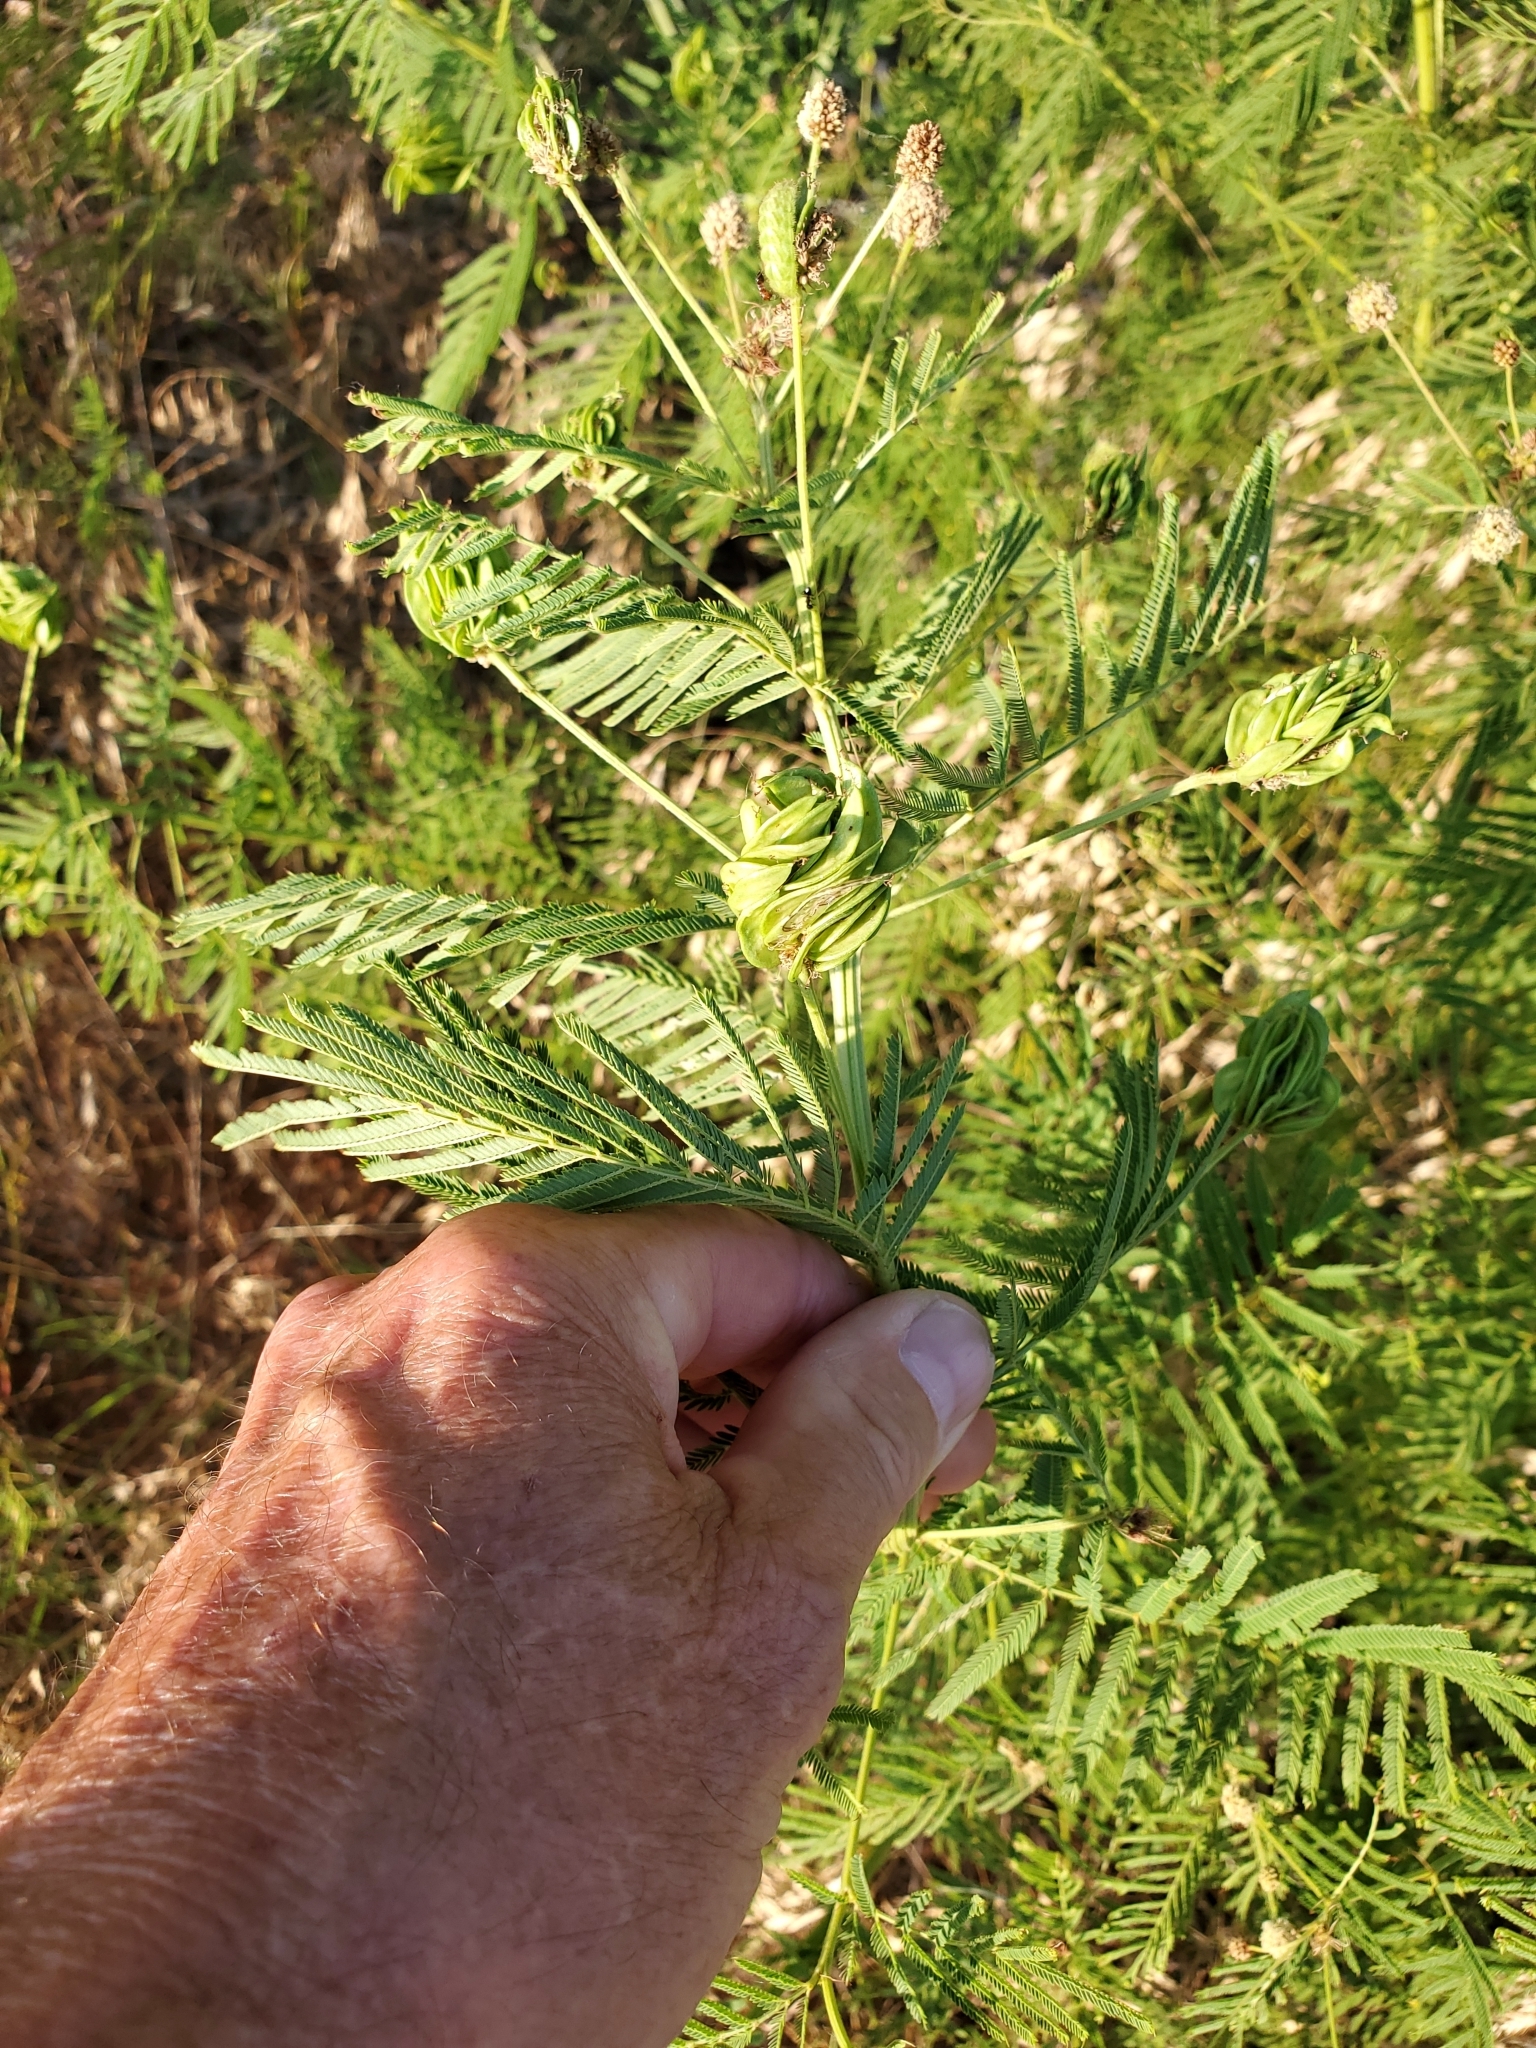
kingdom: Plantae
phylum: Tracheophyta
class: Magnoliopsida
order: Fabales
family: Fabaceae
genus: Desmanthus
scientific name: Desmanthus illinoensis
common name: Illinois bundle-flower
